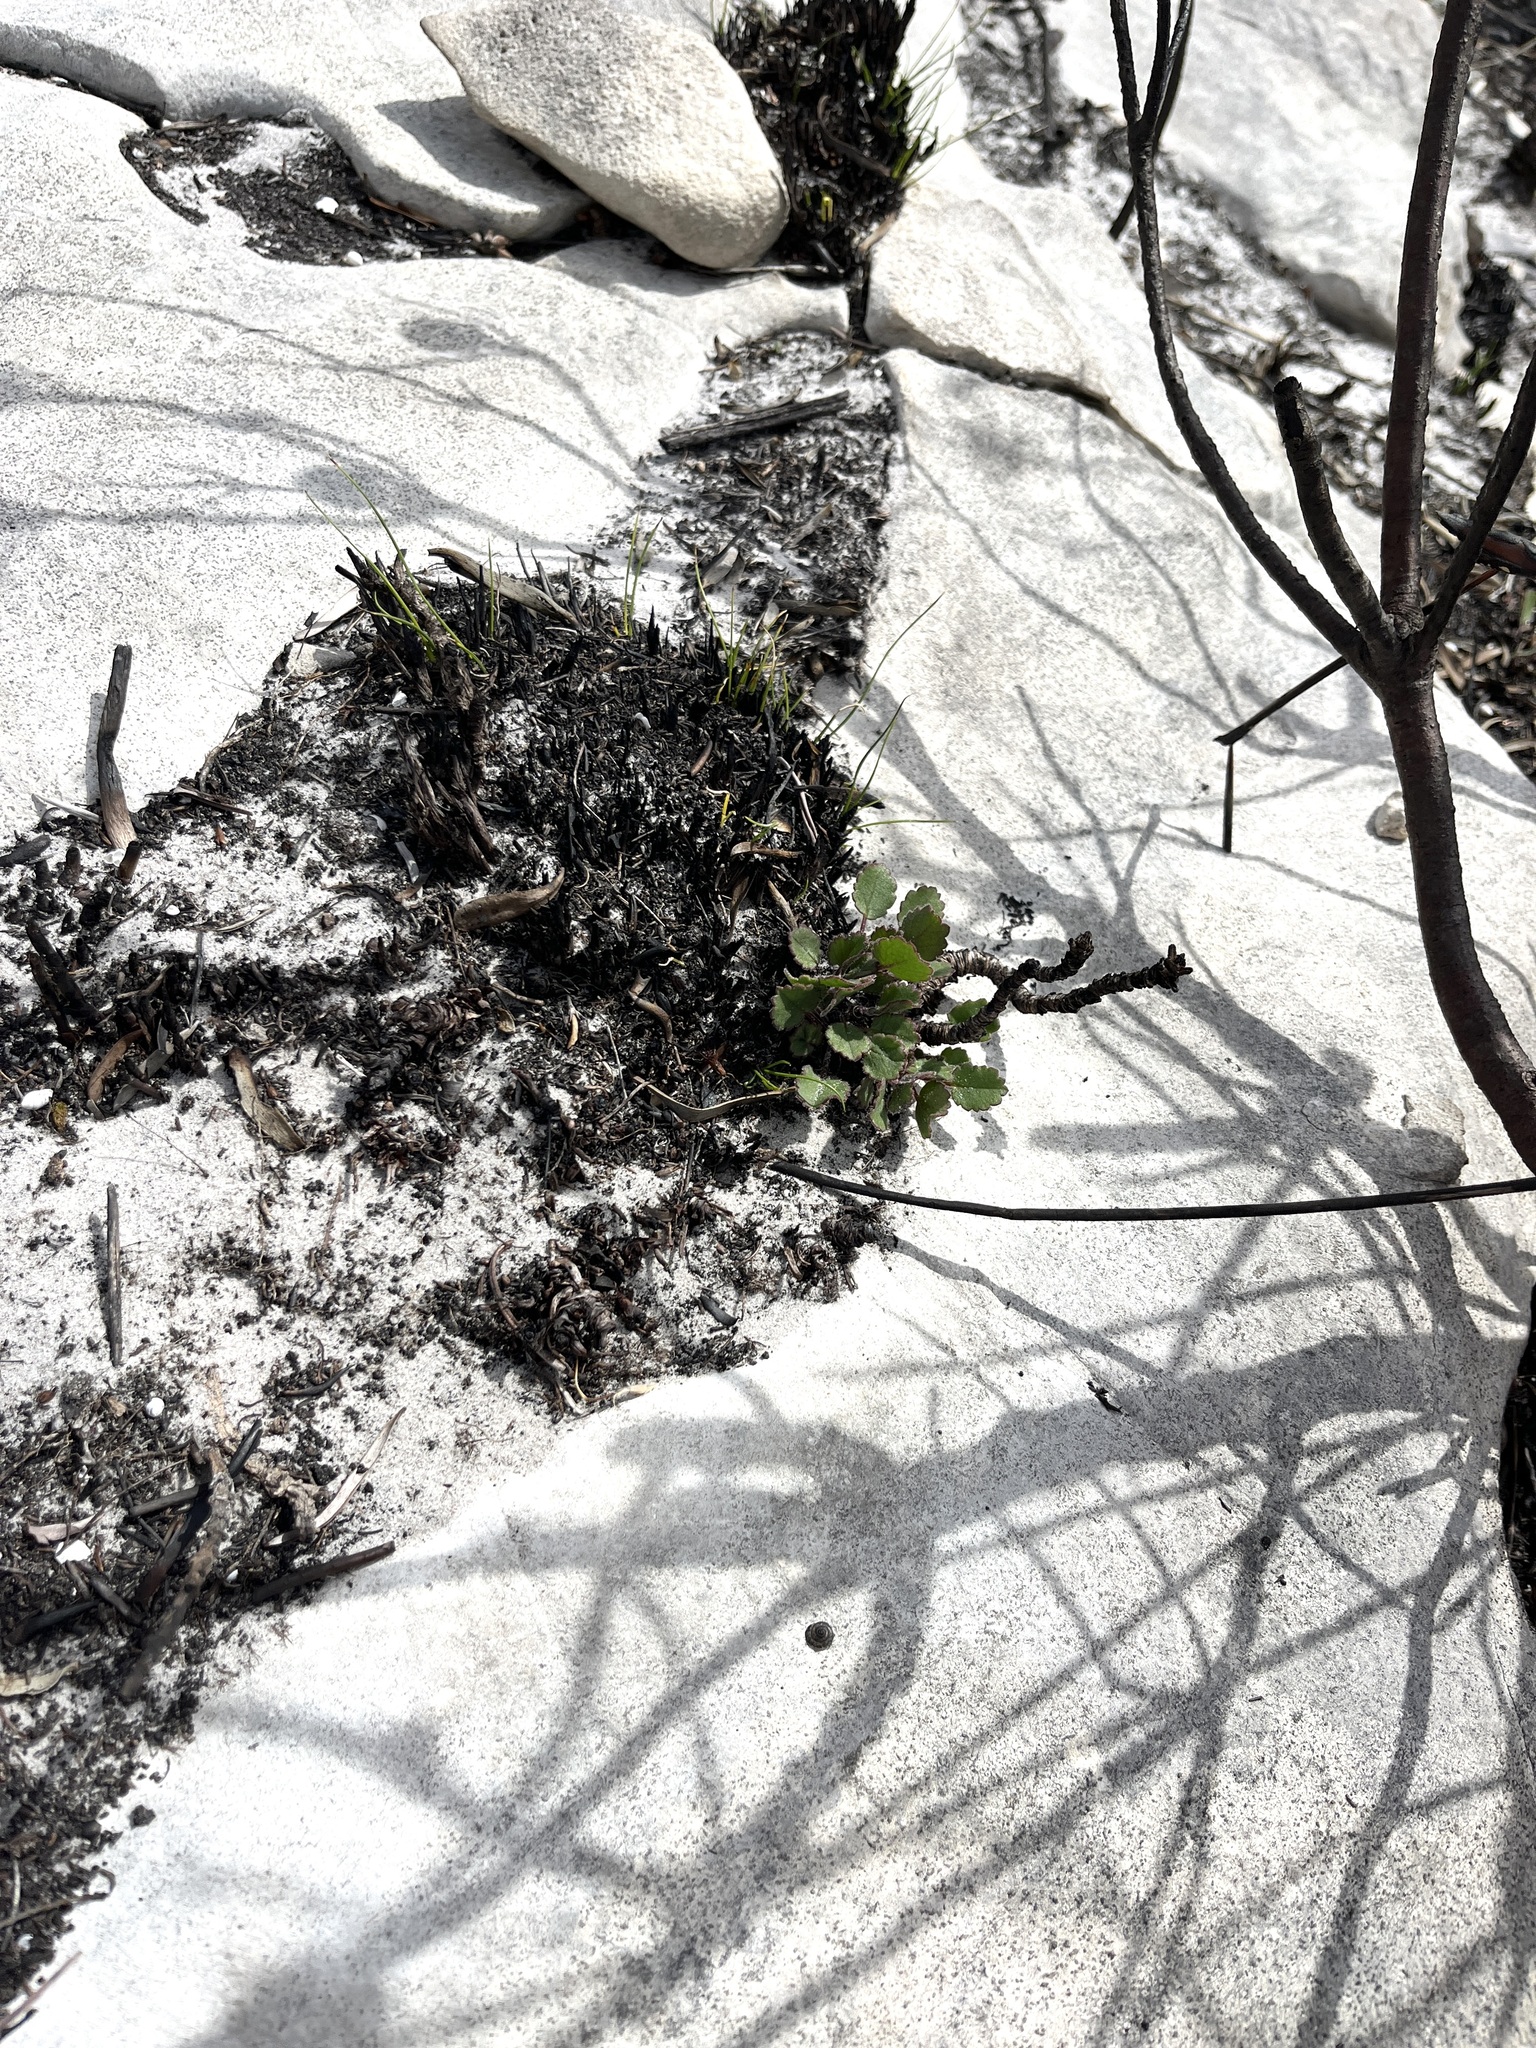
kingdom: Plantae
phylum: Tracheophyta
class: Magnoliopsida
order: Geraniales
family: Geraniaceae
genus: Pelargonium
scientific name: Pelargonium elegans
